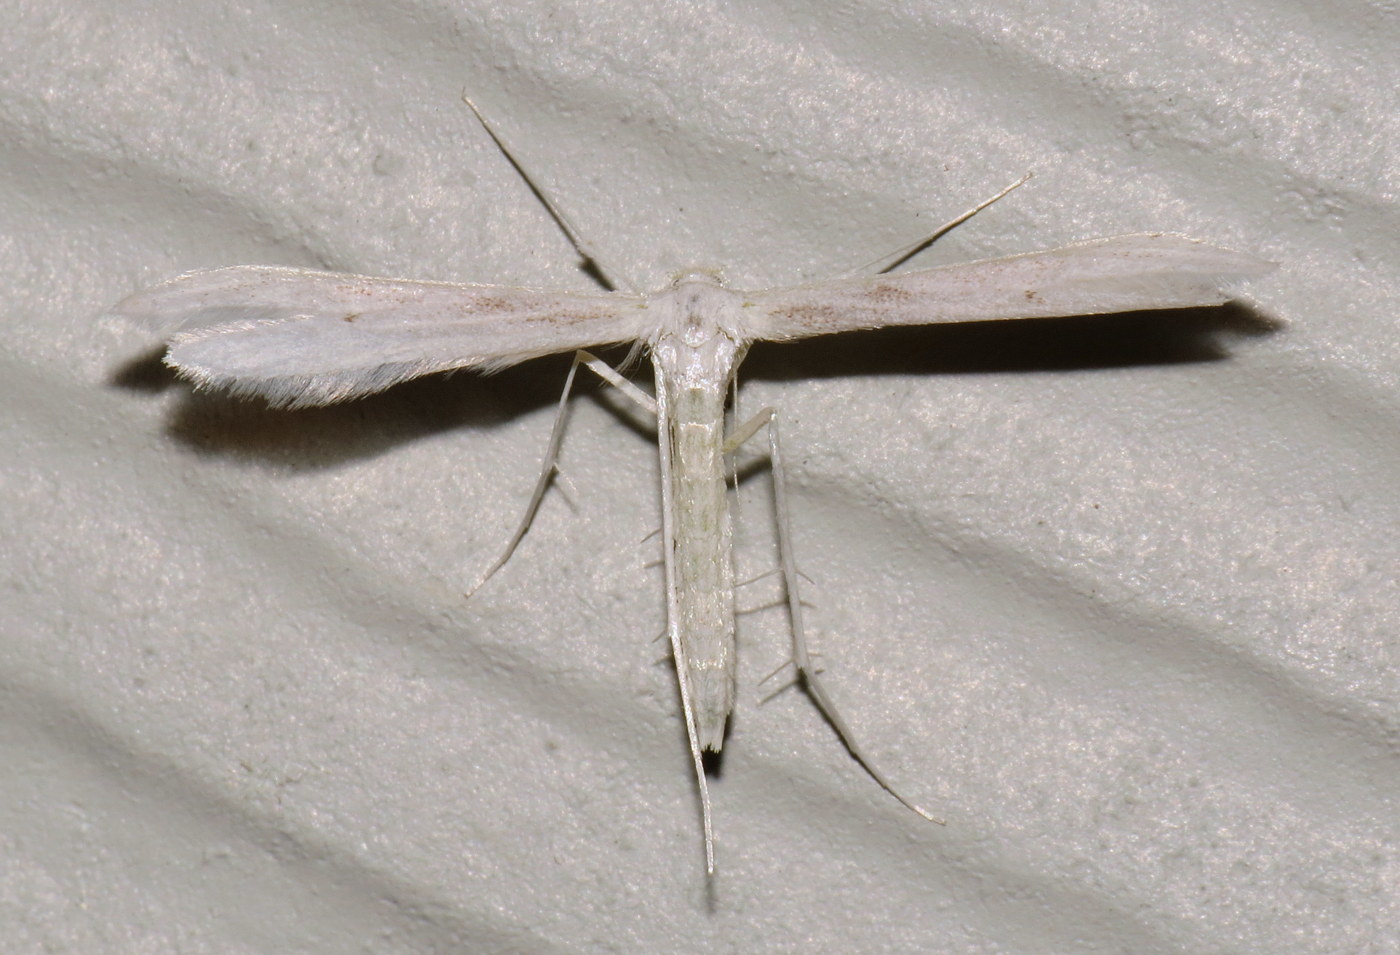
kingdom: Animalia
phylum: Arthropoda
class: Insecta
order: Lepidoptera
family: Pterophoridae
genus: Hellinsia
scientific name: Hellinsia homodactylus
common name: Plain plume moth
